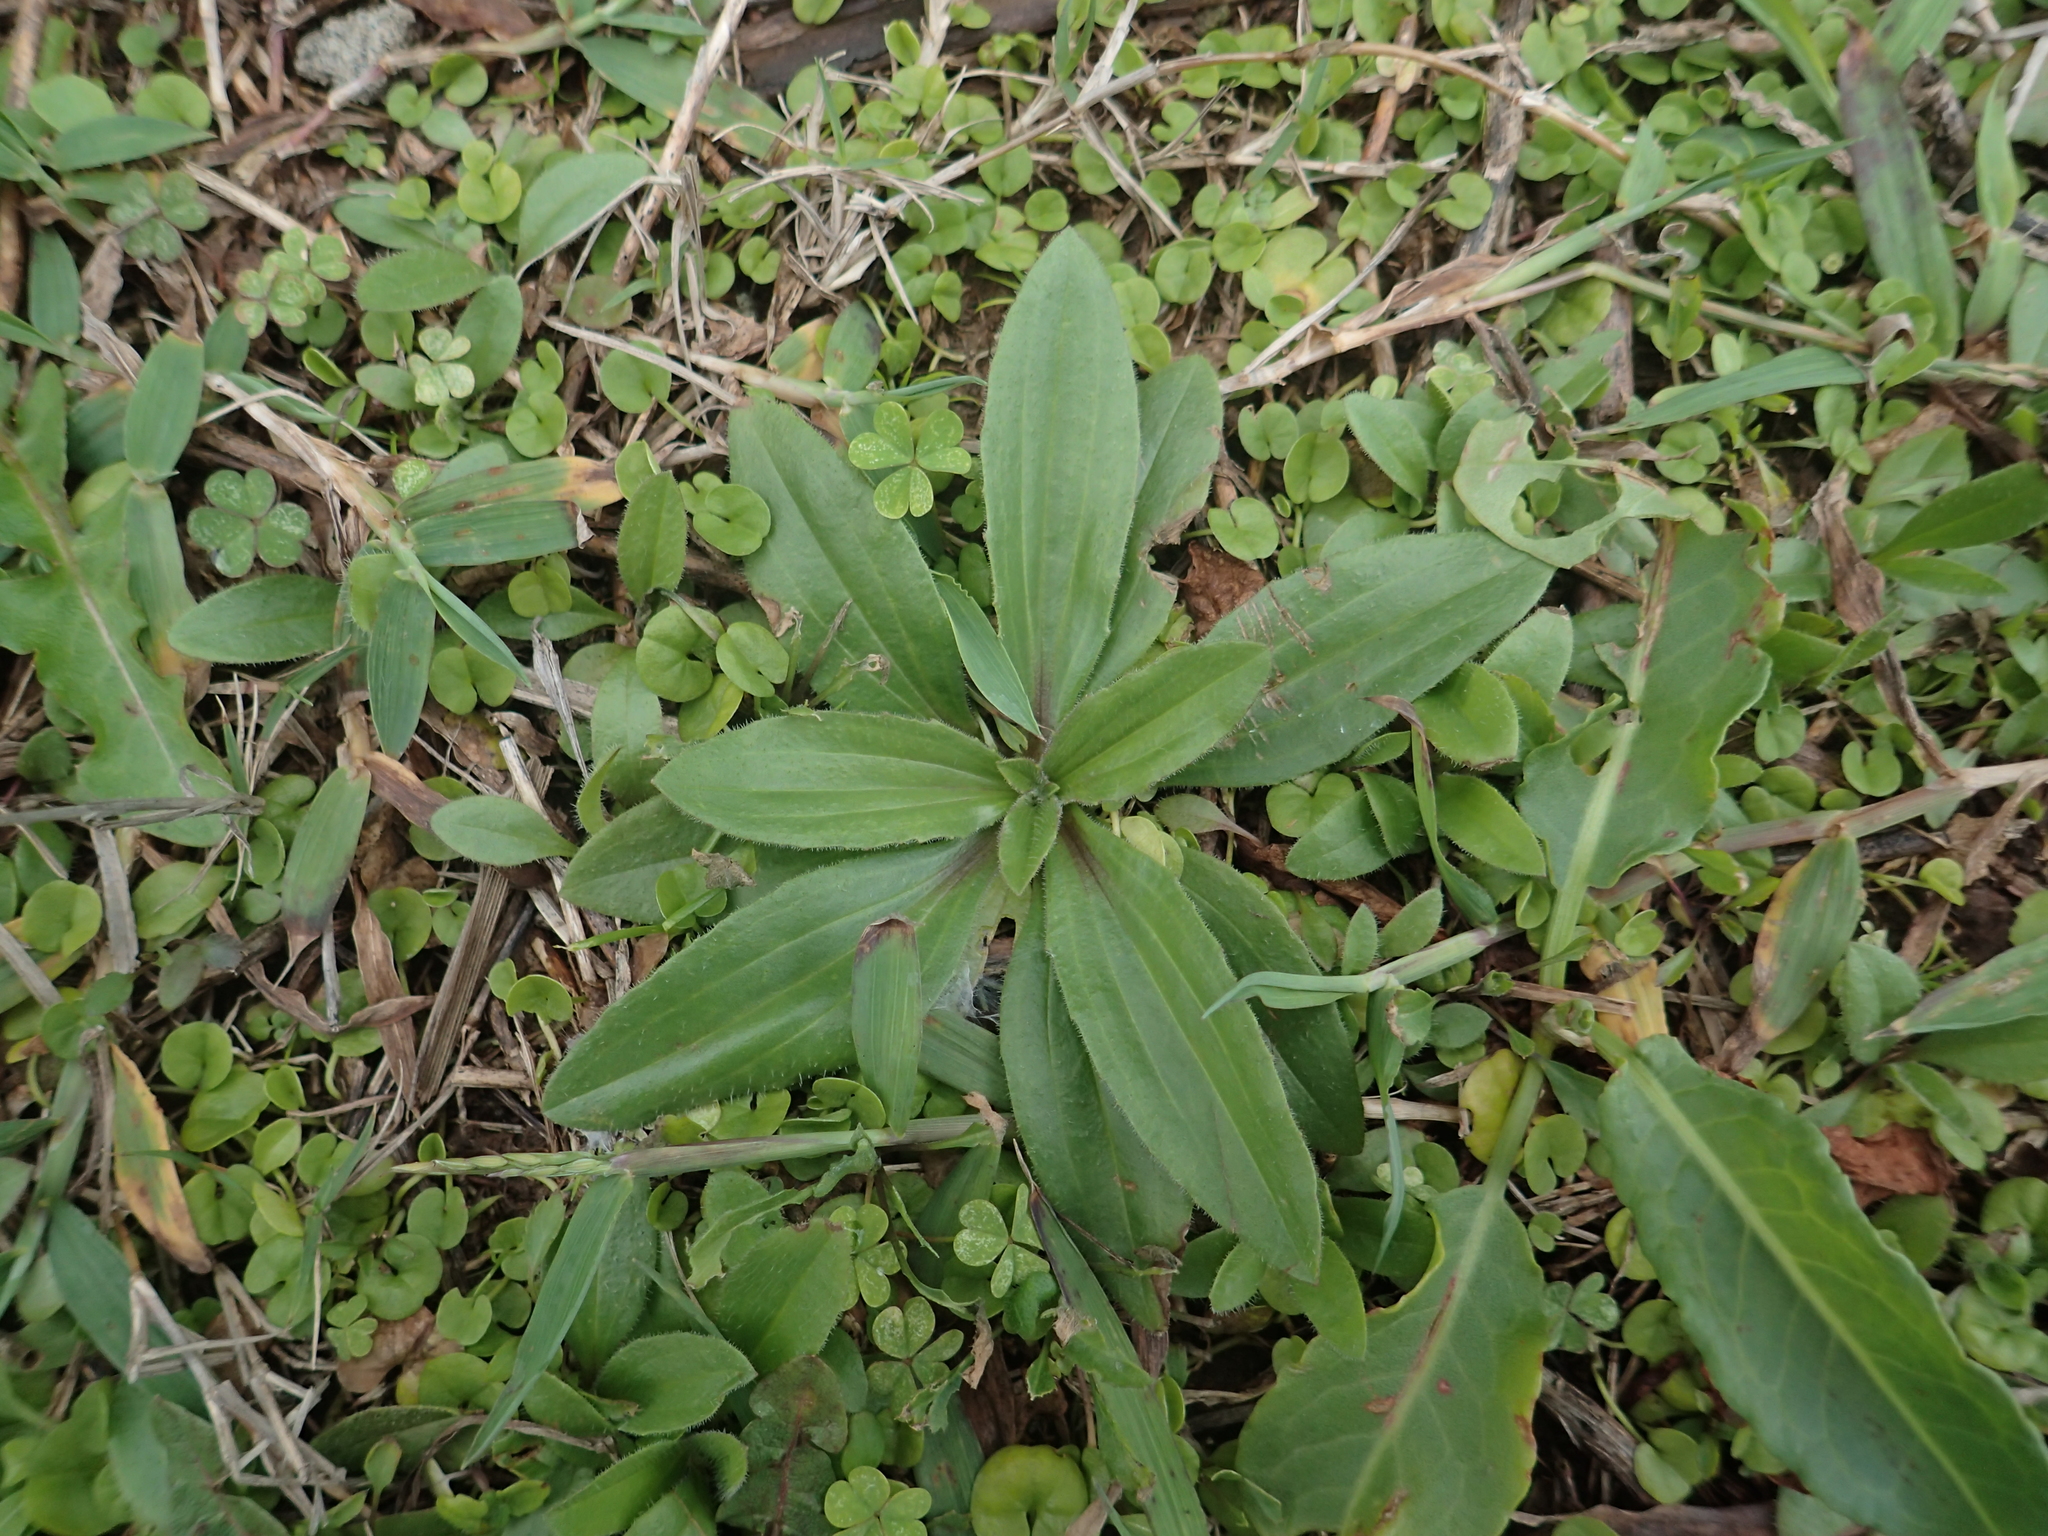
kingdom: Plantae
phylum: Tracheophyta
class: Magnoliopsida
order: Lamiales
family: Plantaginaceae
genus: Plantago
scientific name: Plantago virginica
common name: Hoary plantain
